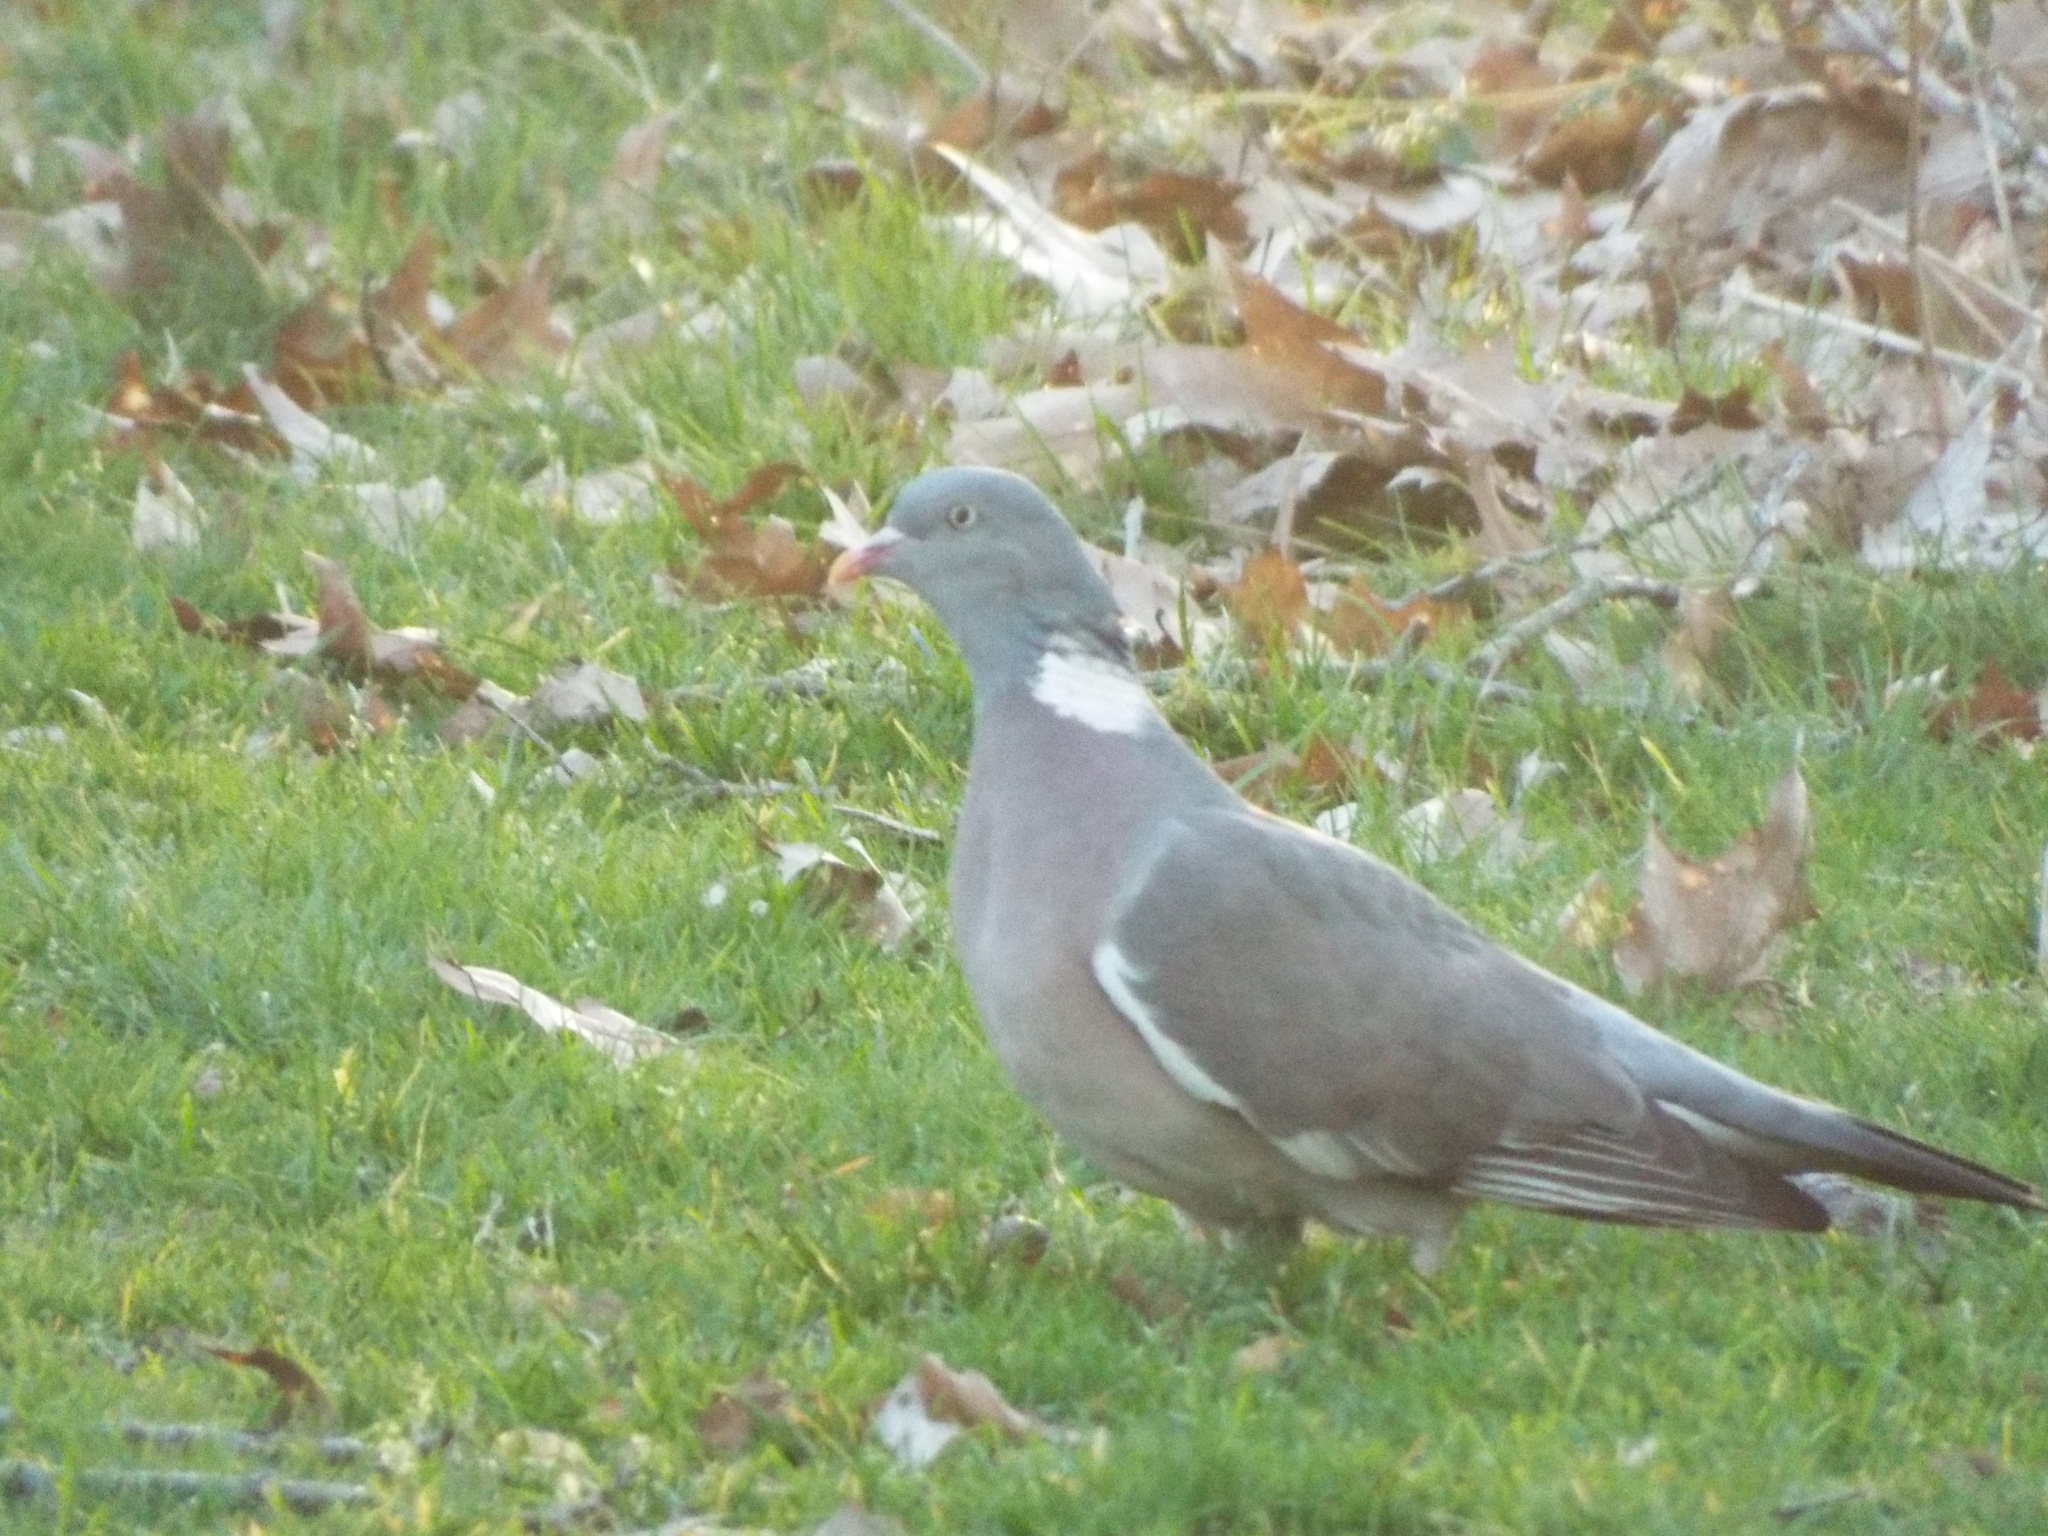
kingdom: Animalia
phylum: Chordata
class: Aves
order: Columbiformes
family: Columbidae
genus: Columba
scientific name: Columba palumbus
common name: Common wood pigeon
